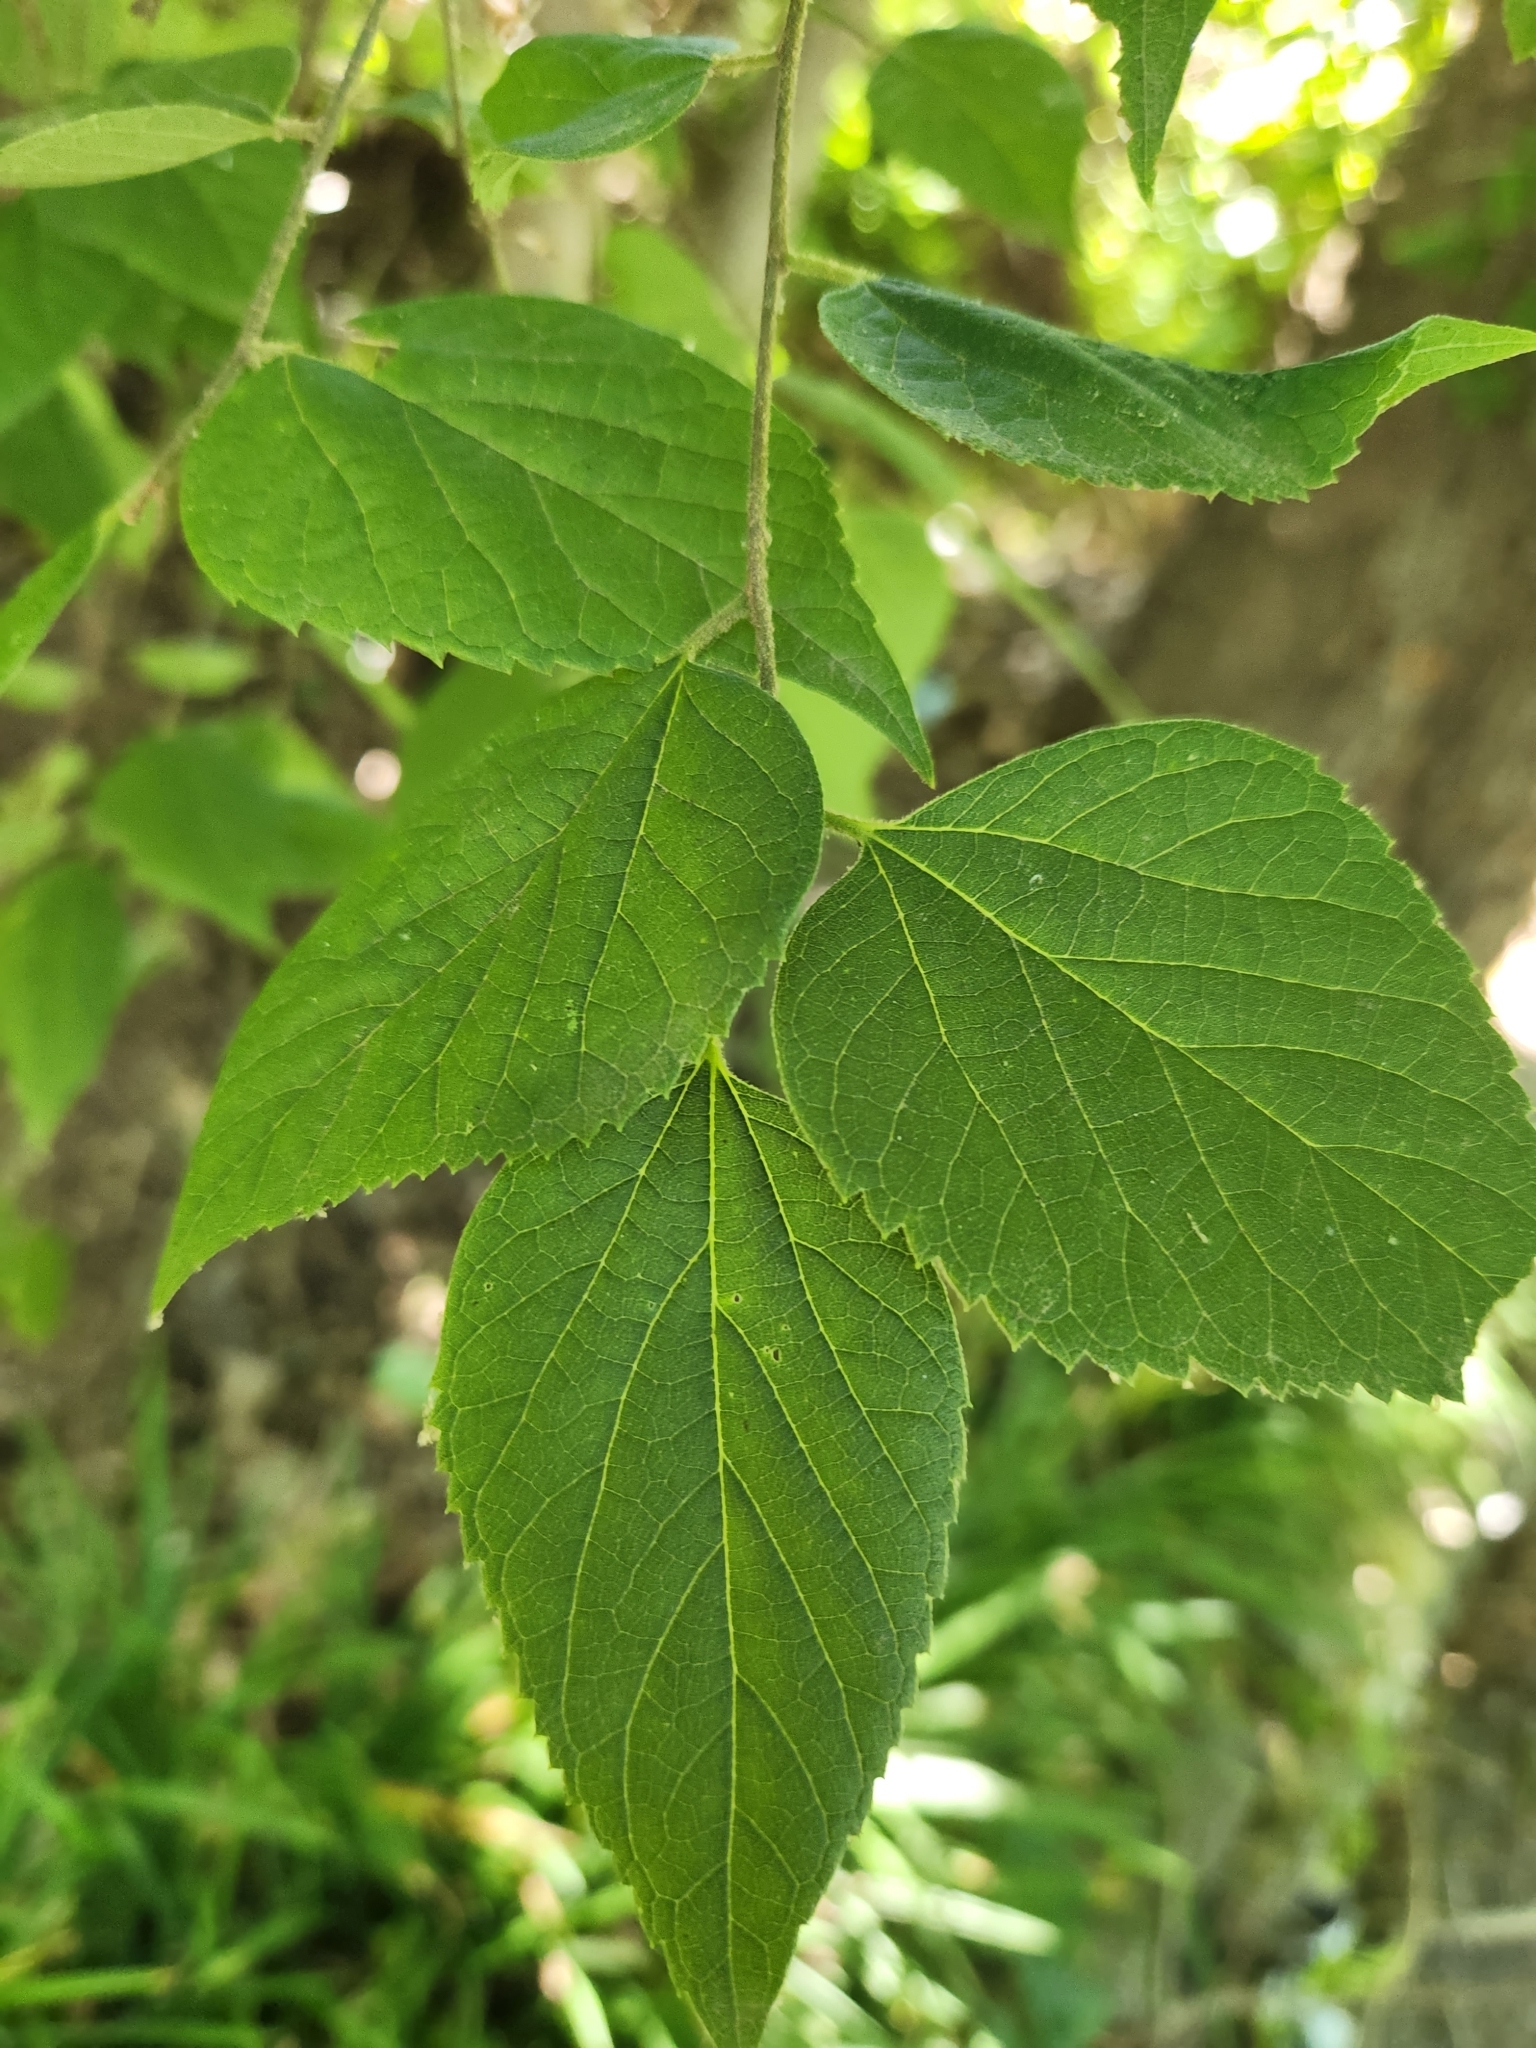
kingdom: Plantae
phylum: Tracheophyta
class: Magnoliopsida
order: Rosales
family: Cannabaceae
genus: Celtis
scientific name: Celtis tenuifolia
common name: Georgia hackberry
